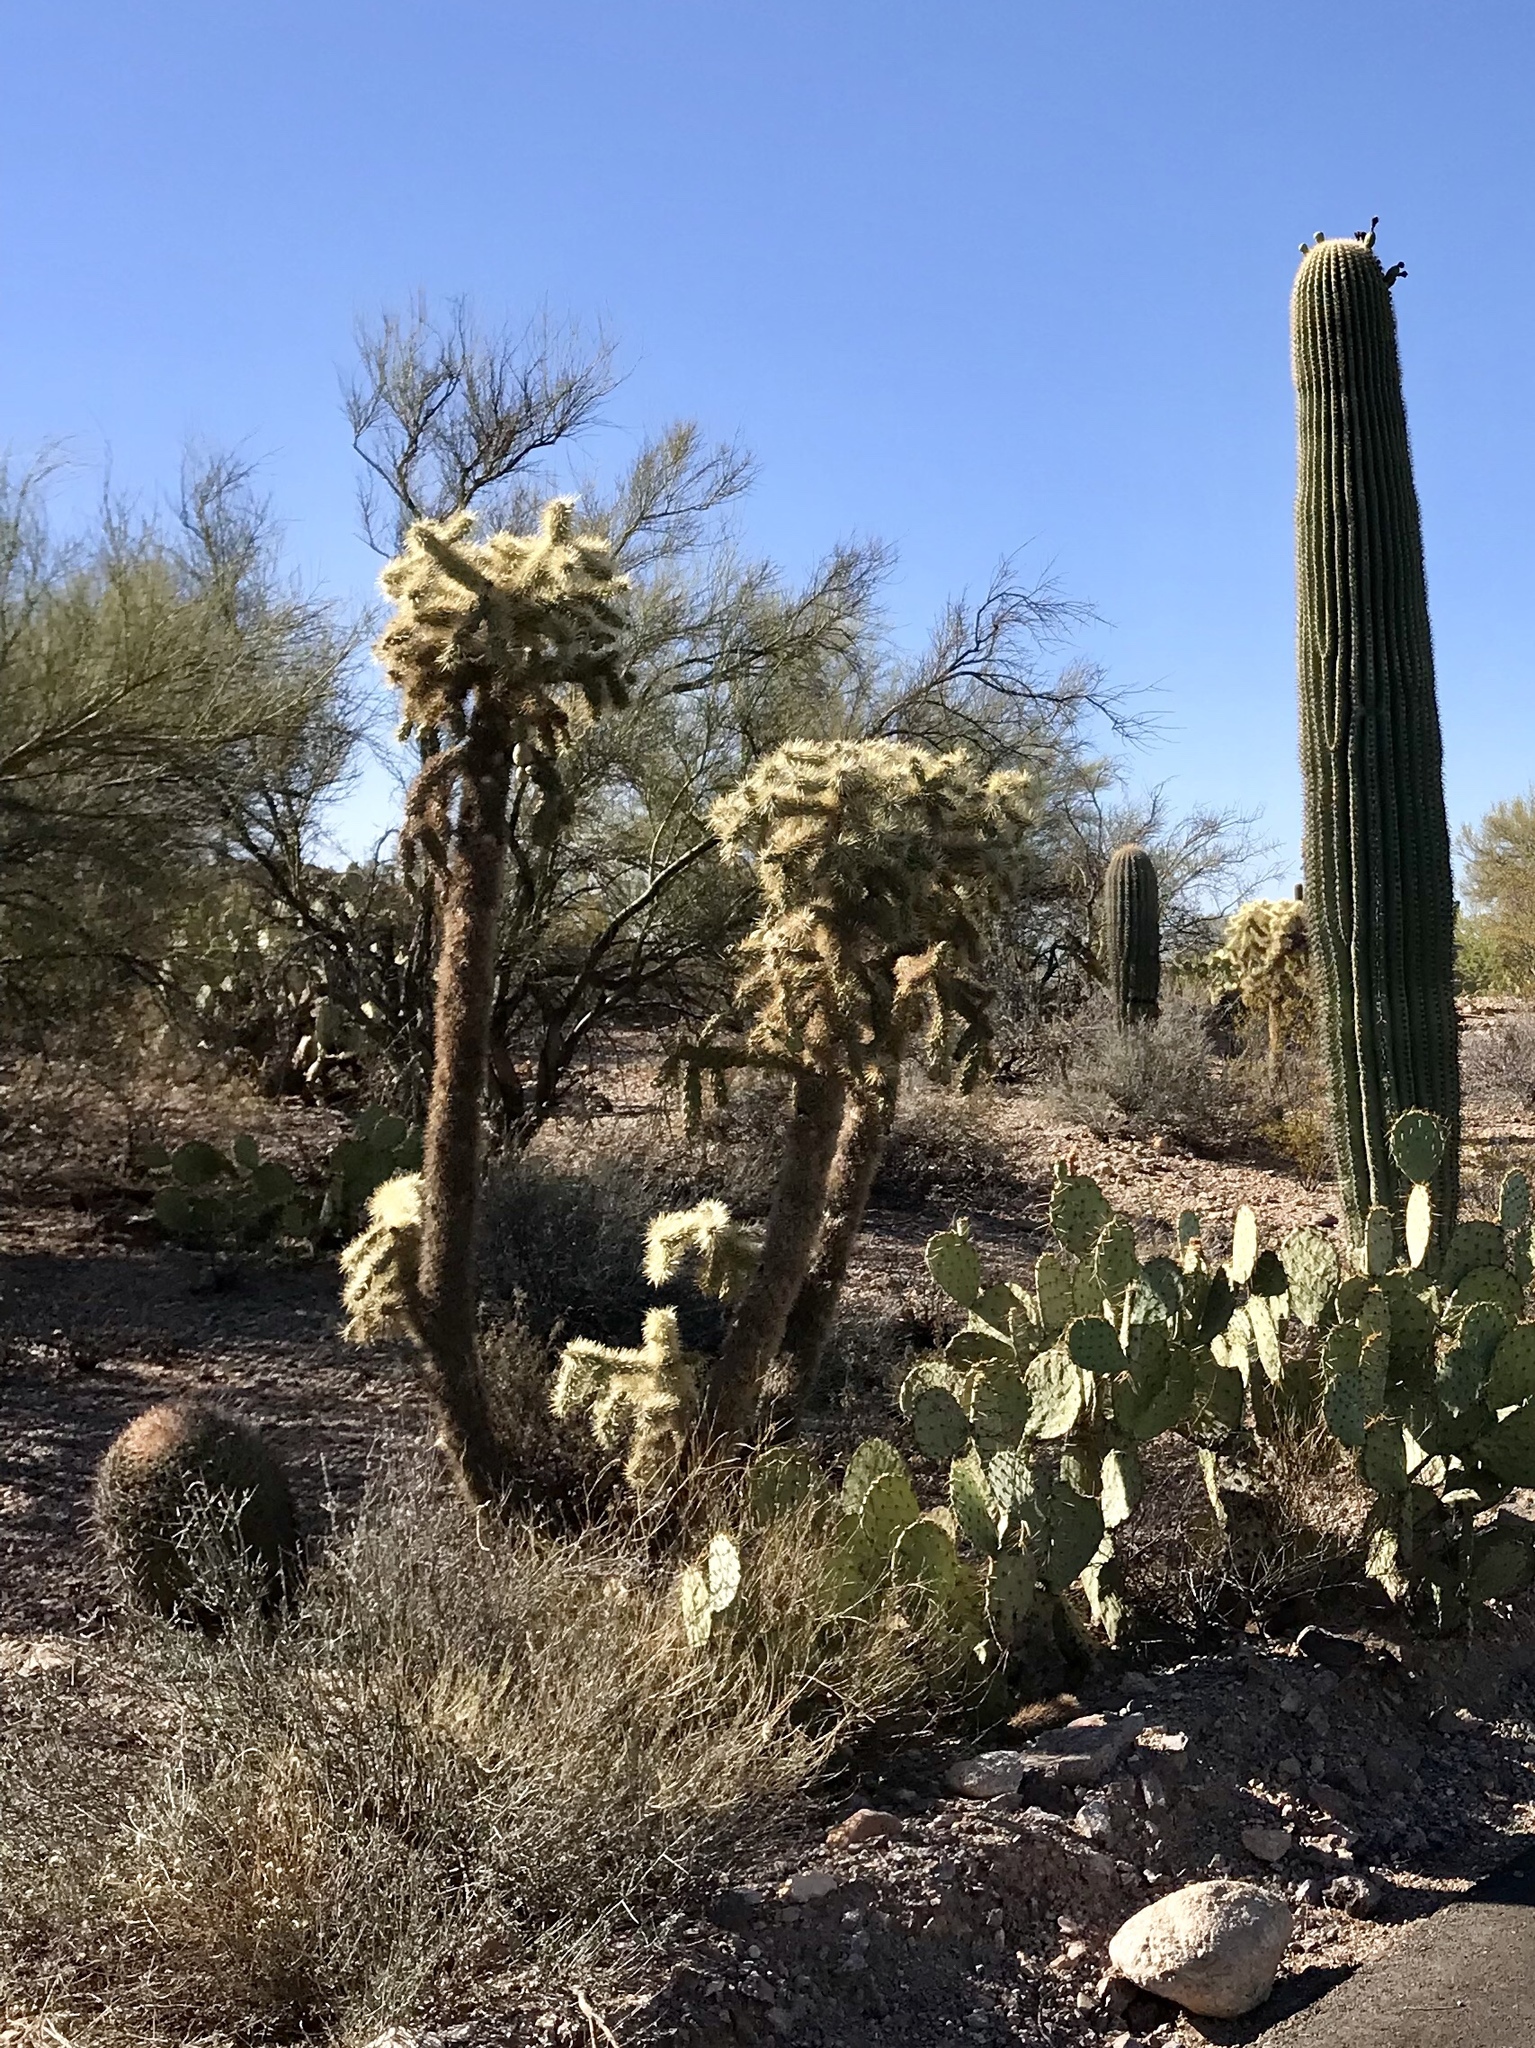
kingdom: Plantae
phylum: Tracheophyta
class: Magnoliopsida
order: Caryophyllales
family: Cactaceae
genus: Cylindropuntia
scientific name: Cylindropuntia fulgida
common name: Jumping cholla
